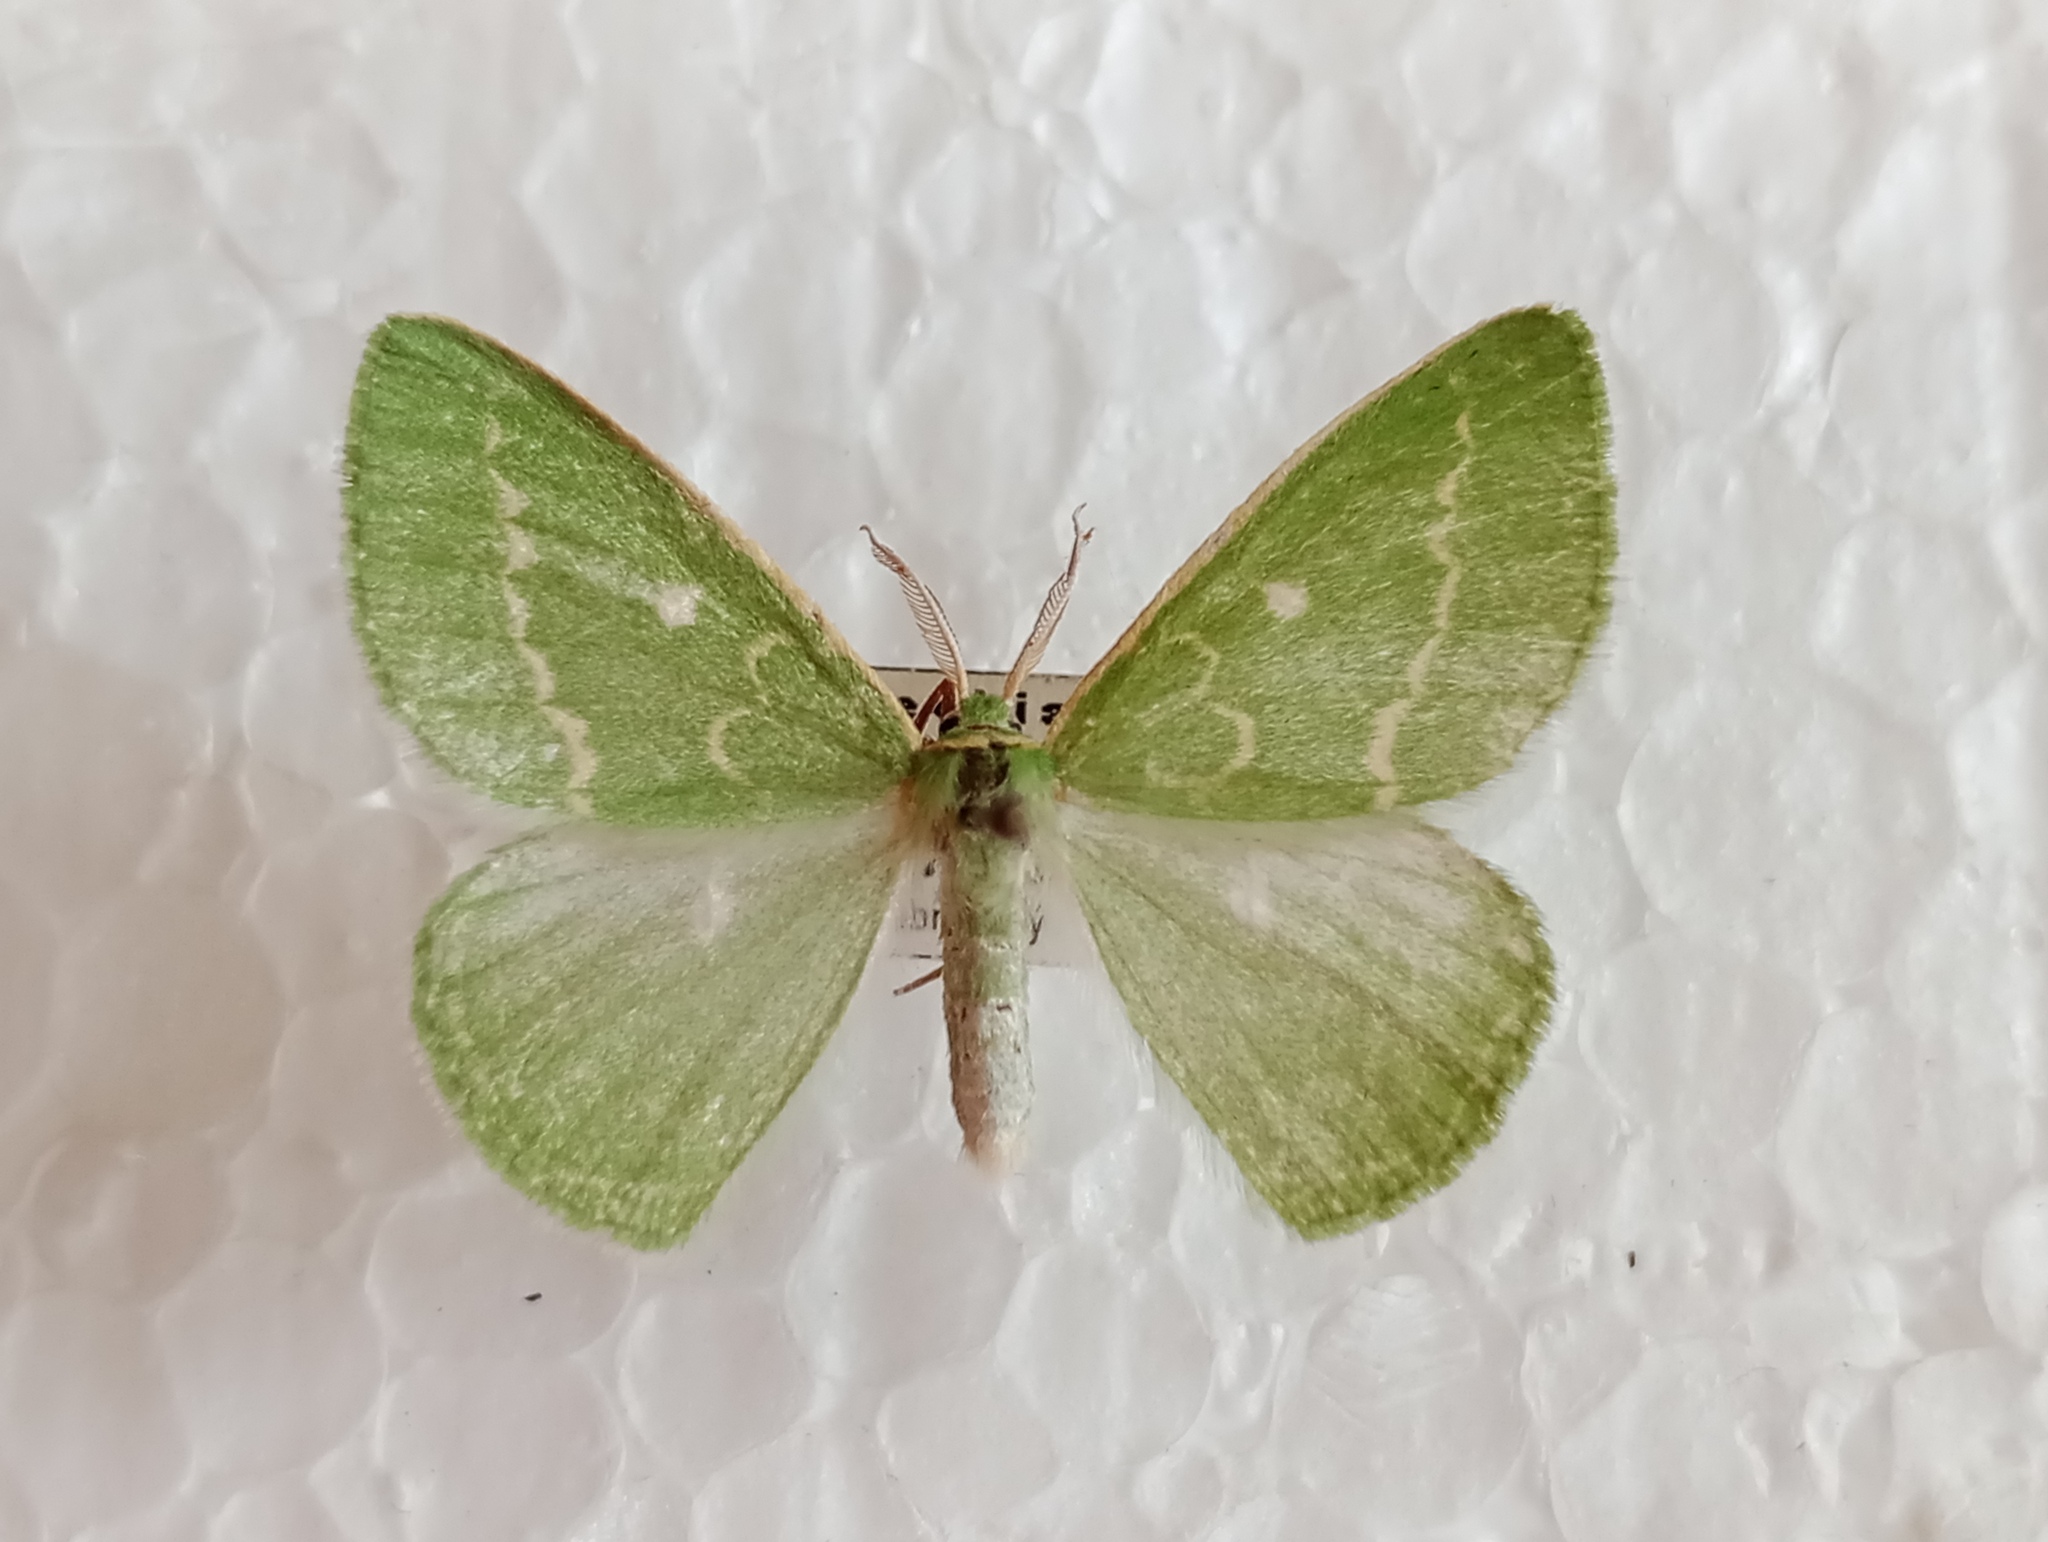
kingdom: Animalia
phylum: Arthropoda
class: Insecta
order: Lepidoptera
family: Geometridae
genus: Thetidia
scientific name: Thetidia smaragdaria
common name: Essex emerald
